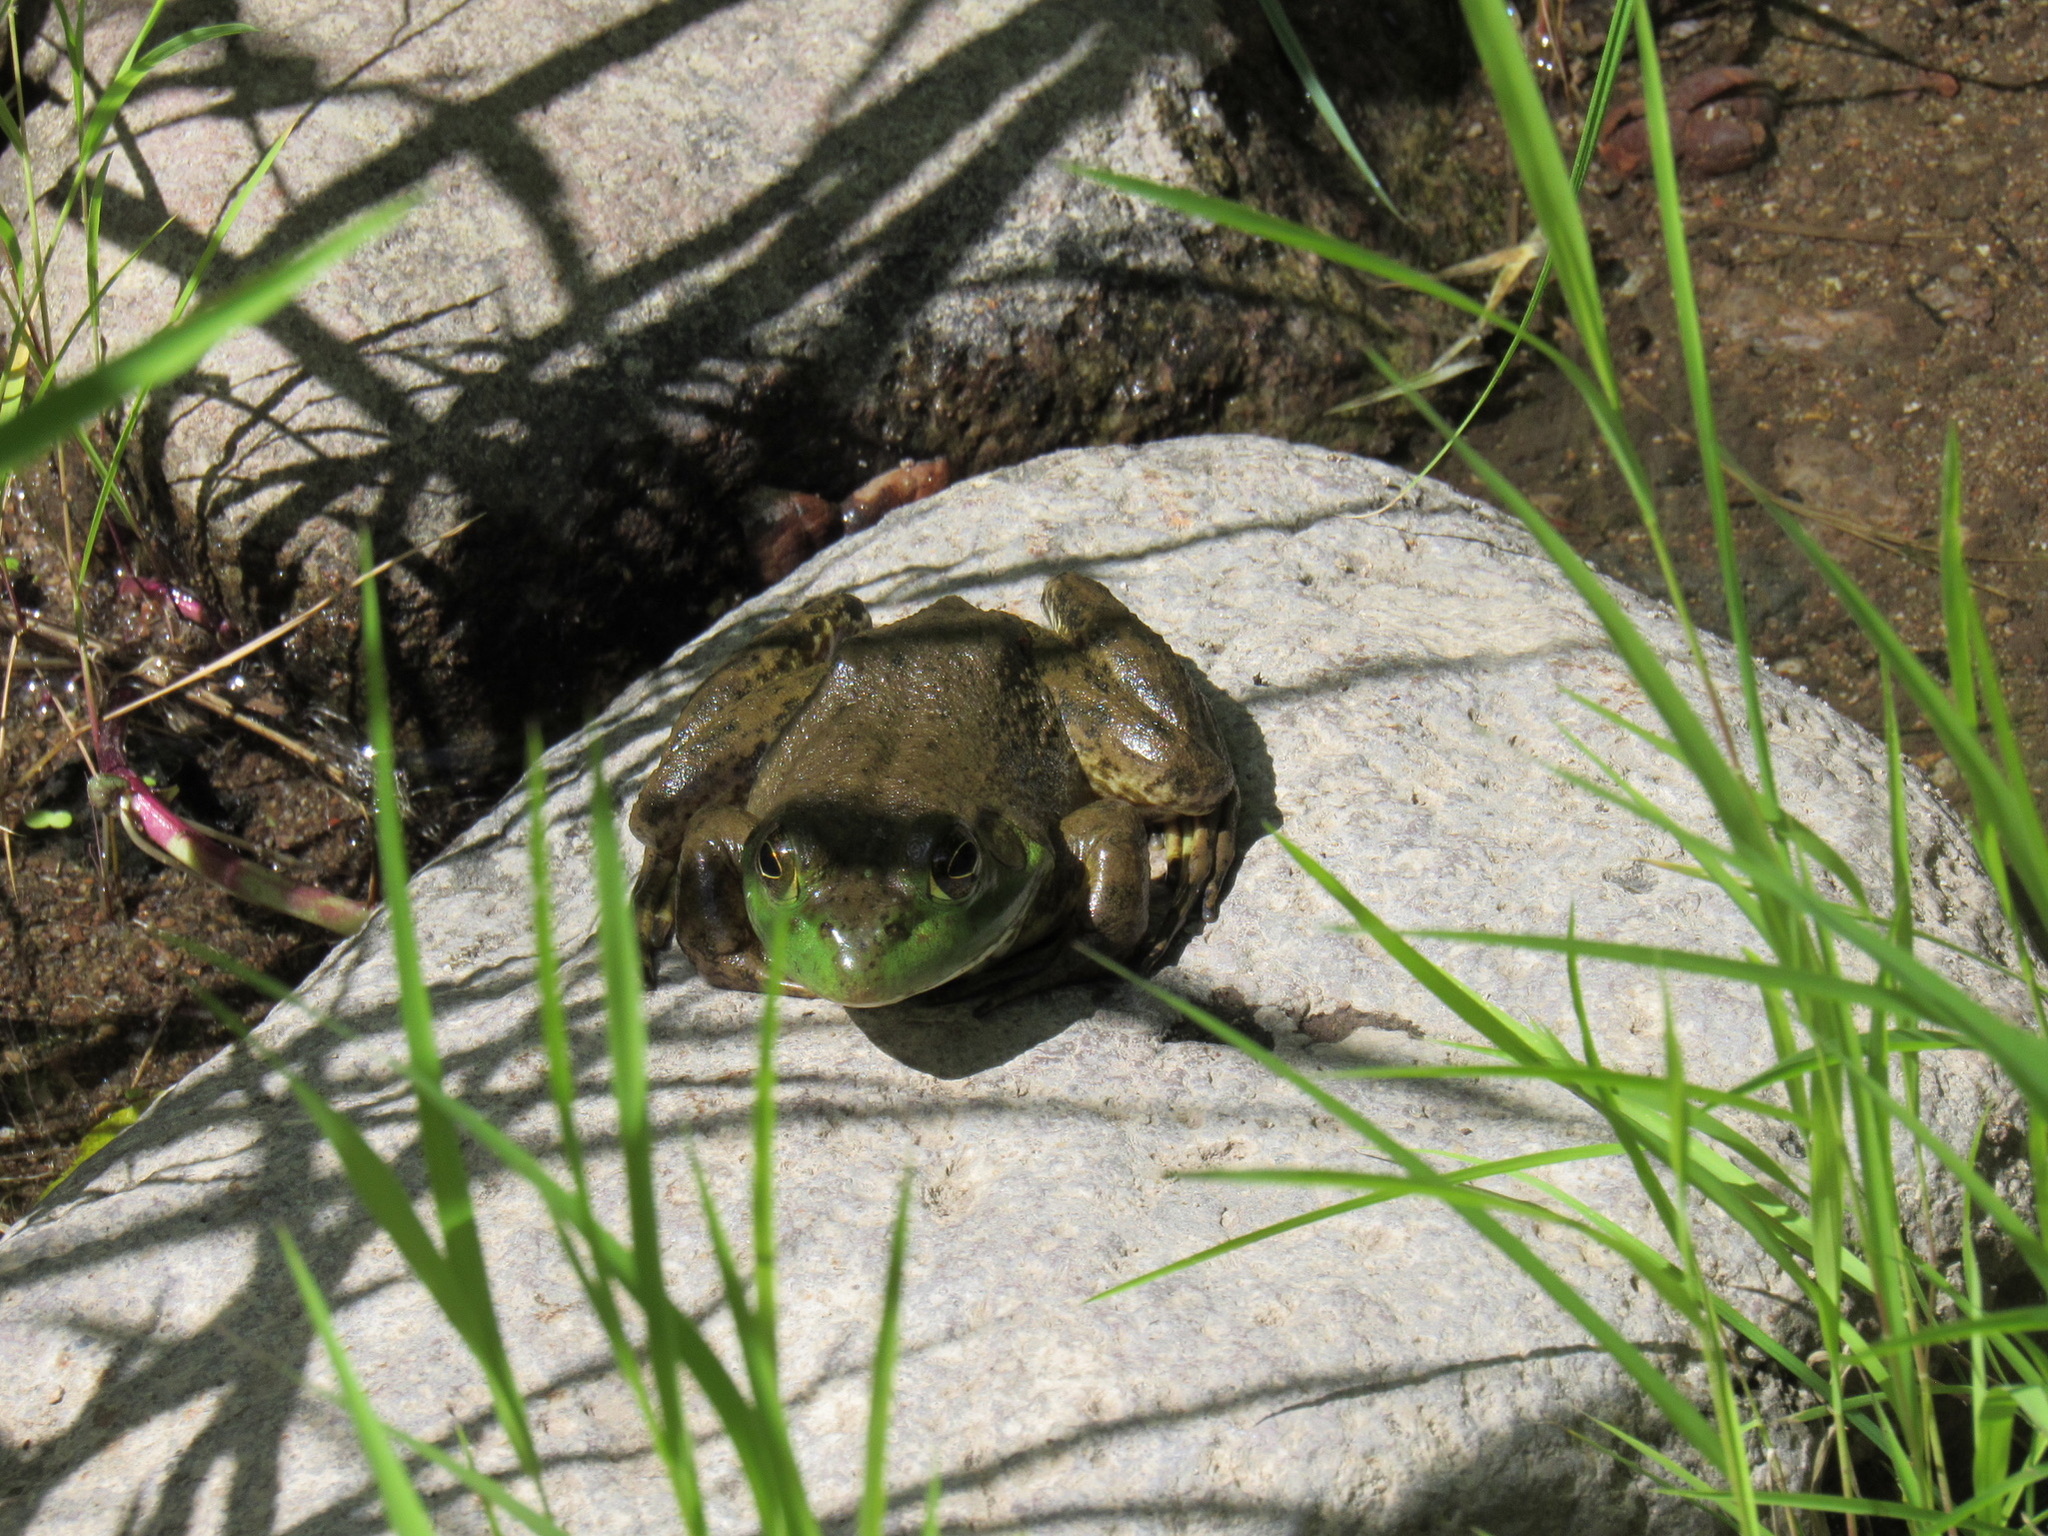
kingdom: Animalia
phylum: Chordata
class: Amphibia
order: Anura
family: Ranidae
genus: Lithobates
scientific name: Lithobates catesbeianus
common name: American bullfrog
